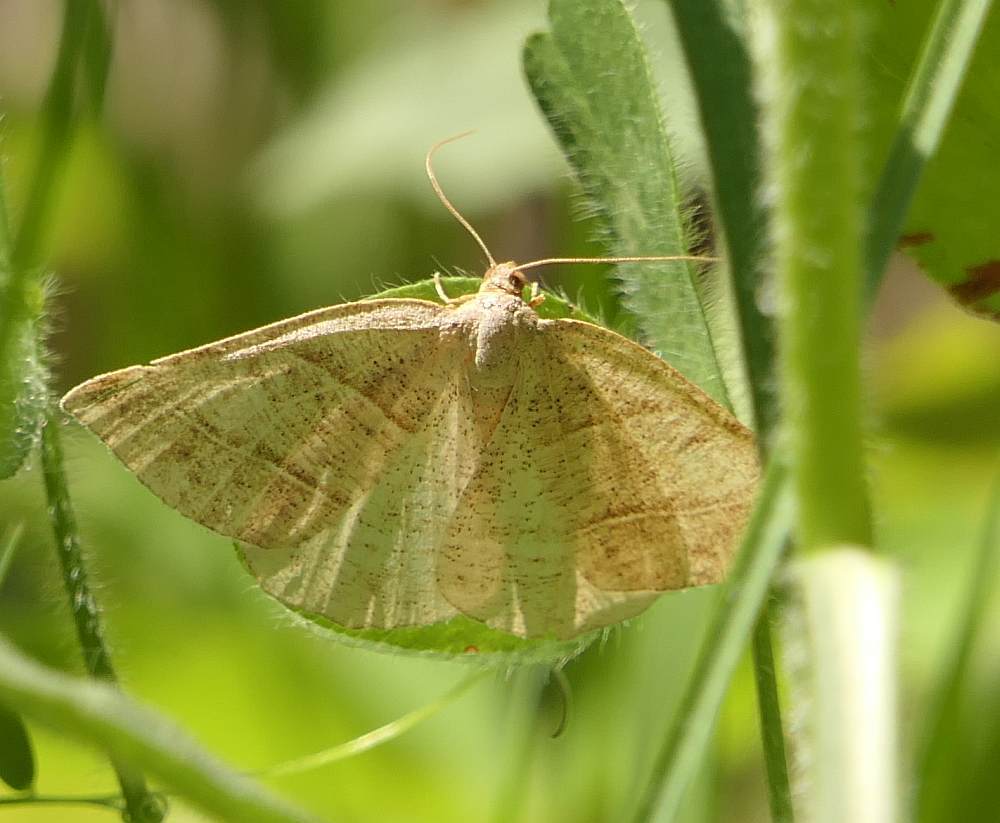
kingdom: Animalia
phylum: Arthropoda
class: Insecta
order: Lepidoptera
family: Pterophoridae
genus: Pterophorus
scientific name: Pterophorus Petrophora subaequaria
